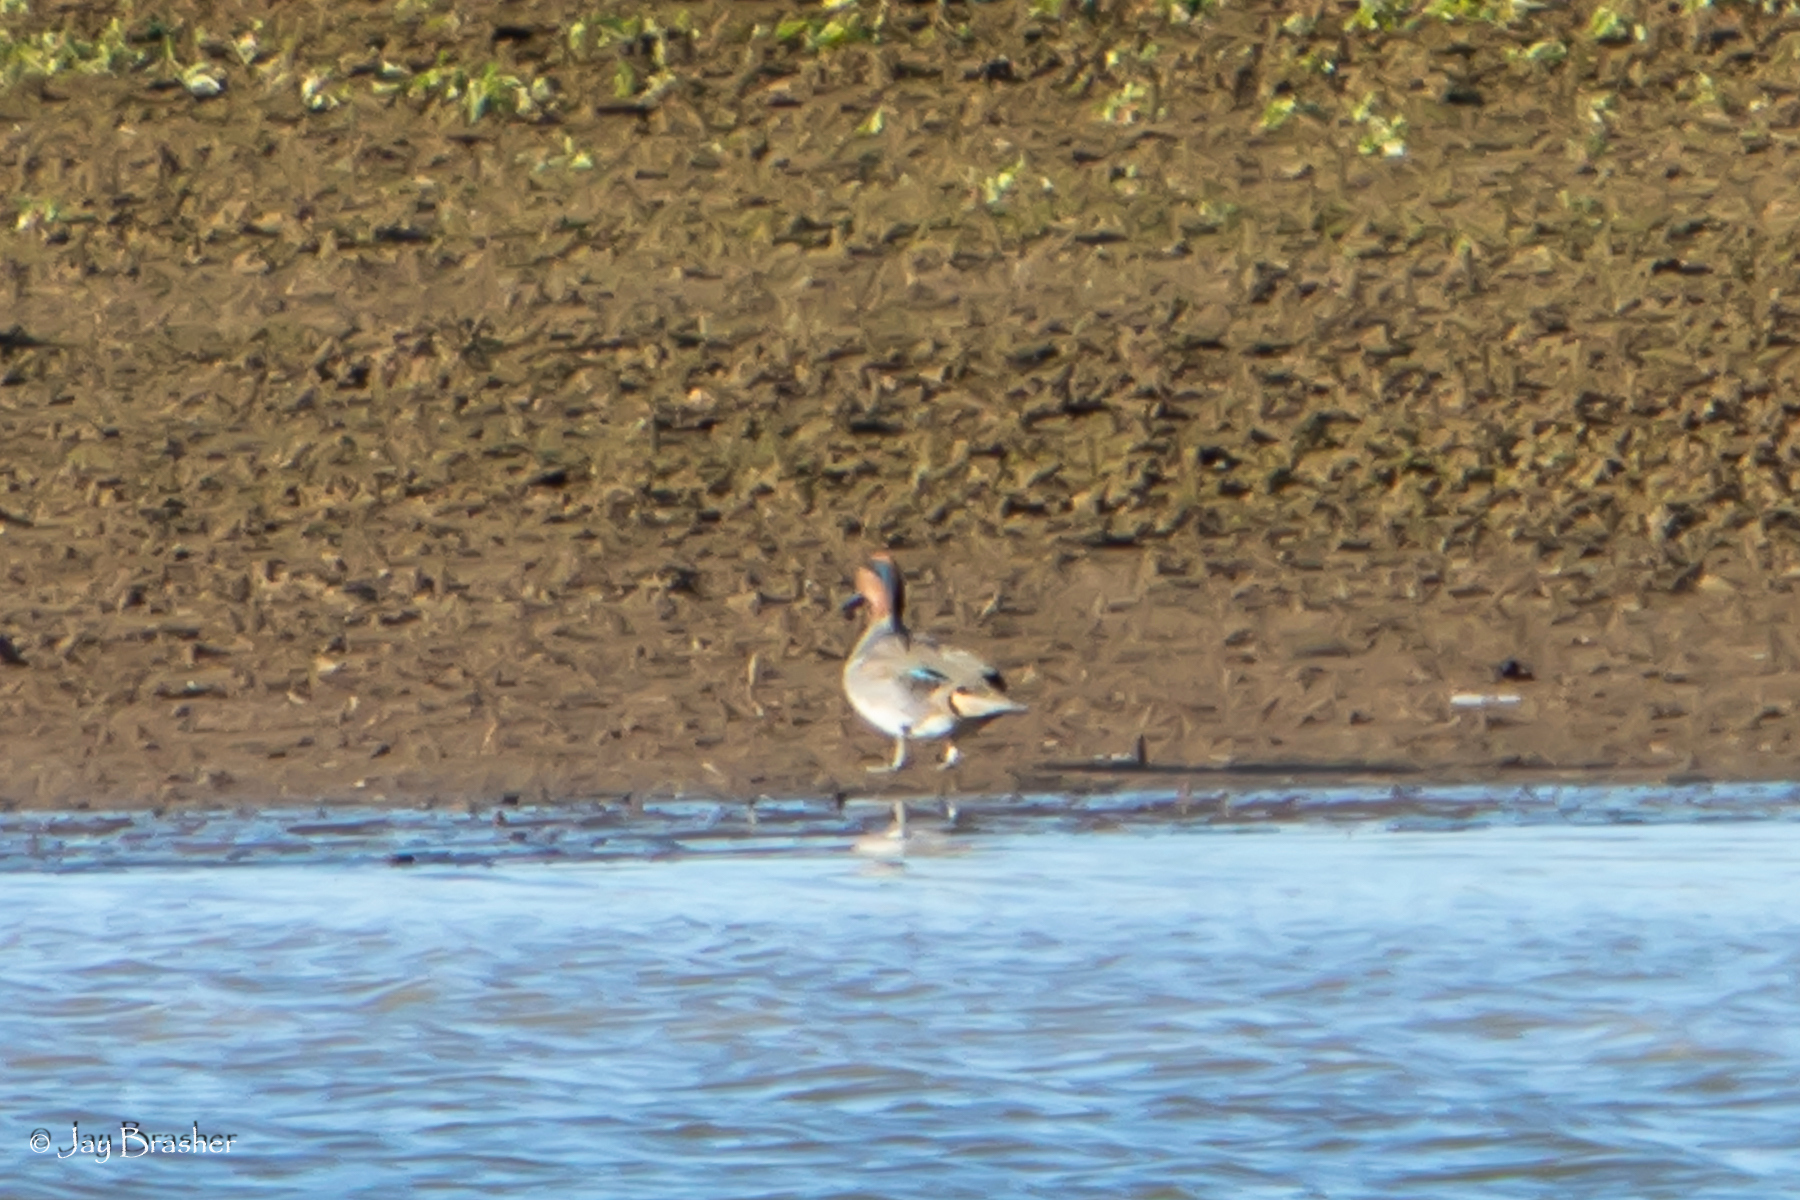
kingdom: Animalia
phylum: Chordata
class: Aves
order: Anseriformes
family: Anatidae
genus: Anas
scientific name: Anas crecca
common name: Eurasian teal
